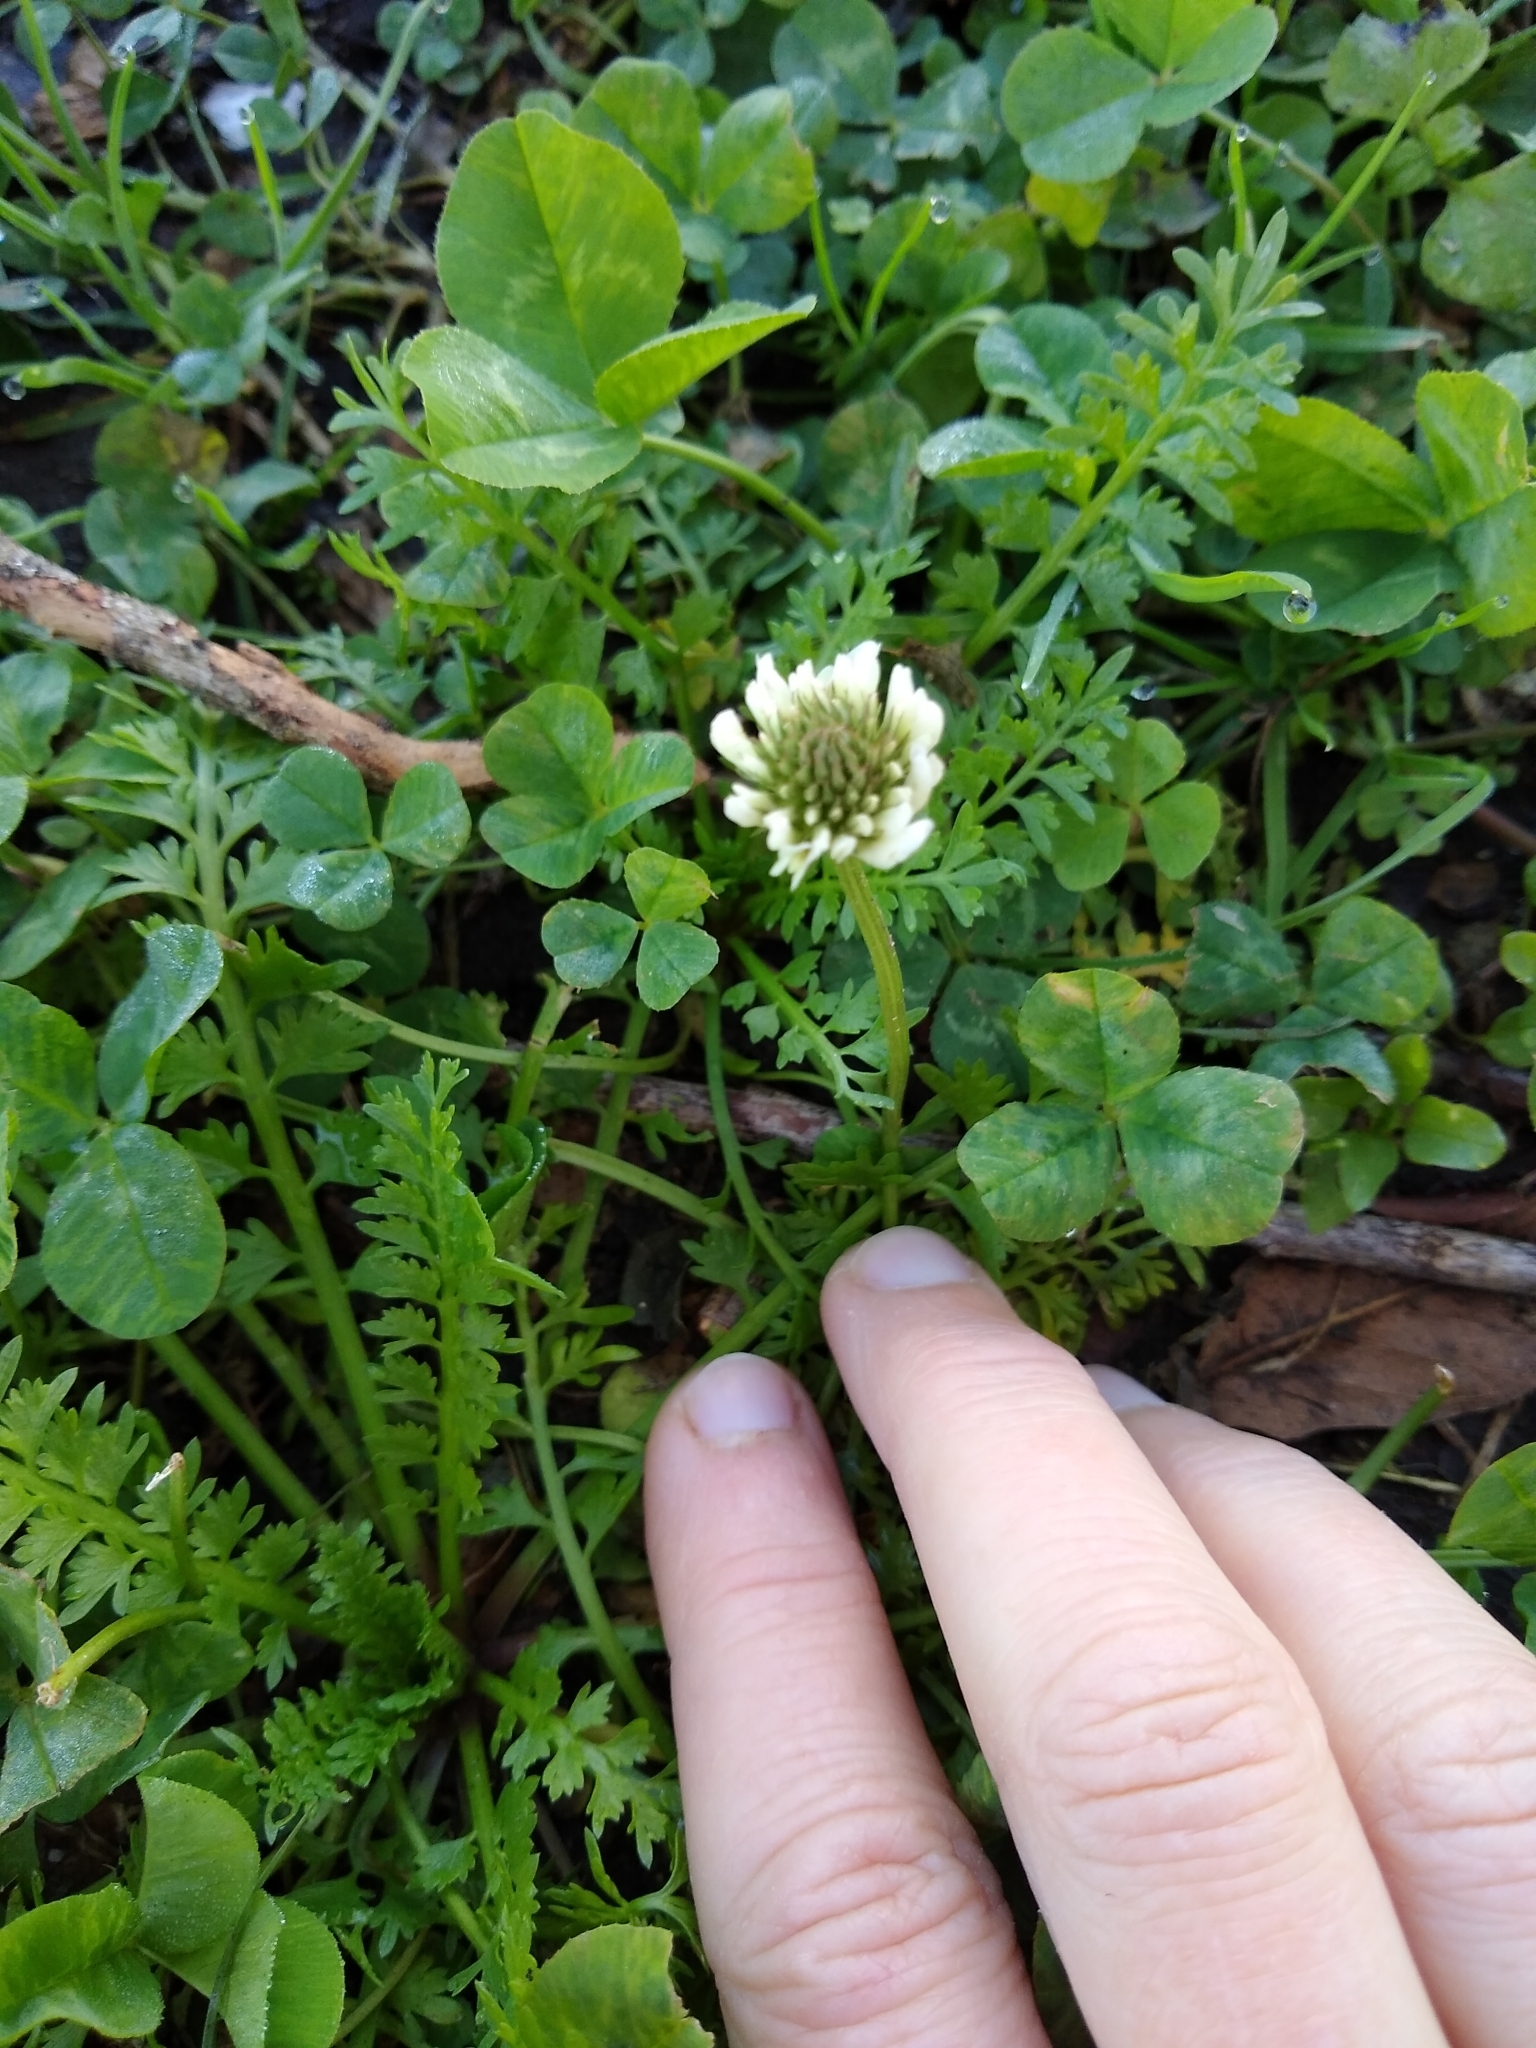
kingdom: Plantae
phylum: Tracheophyta
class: Magnoliopsida
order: Fabales
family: Fabaceae
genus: Trifolium
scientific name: Trifolium repens
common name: White clover
